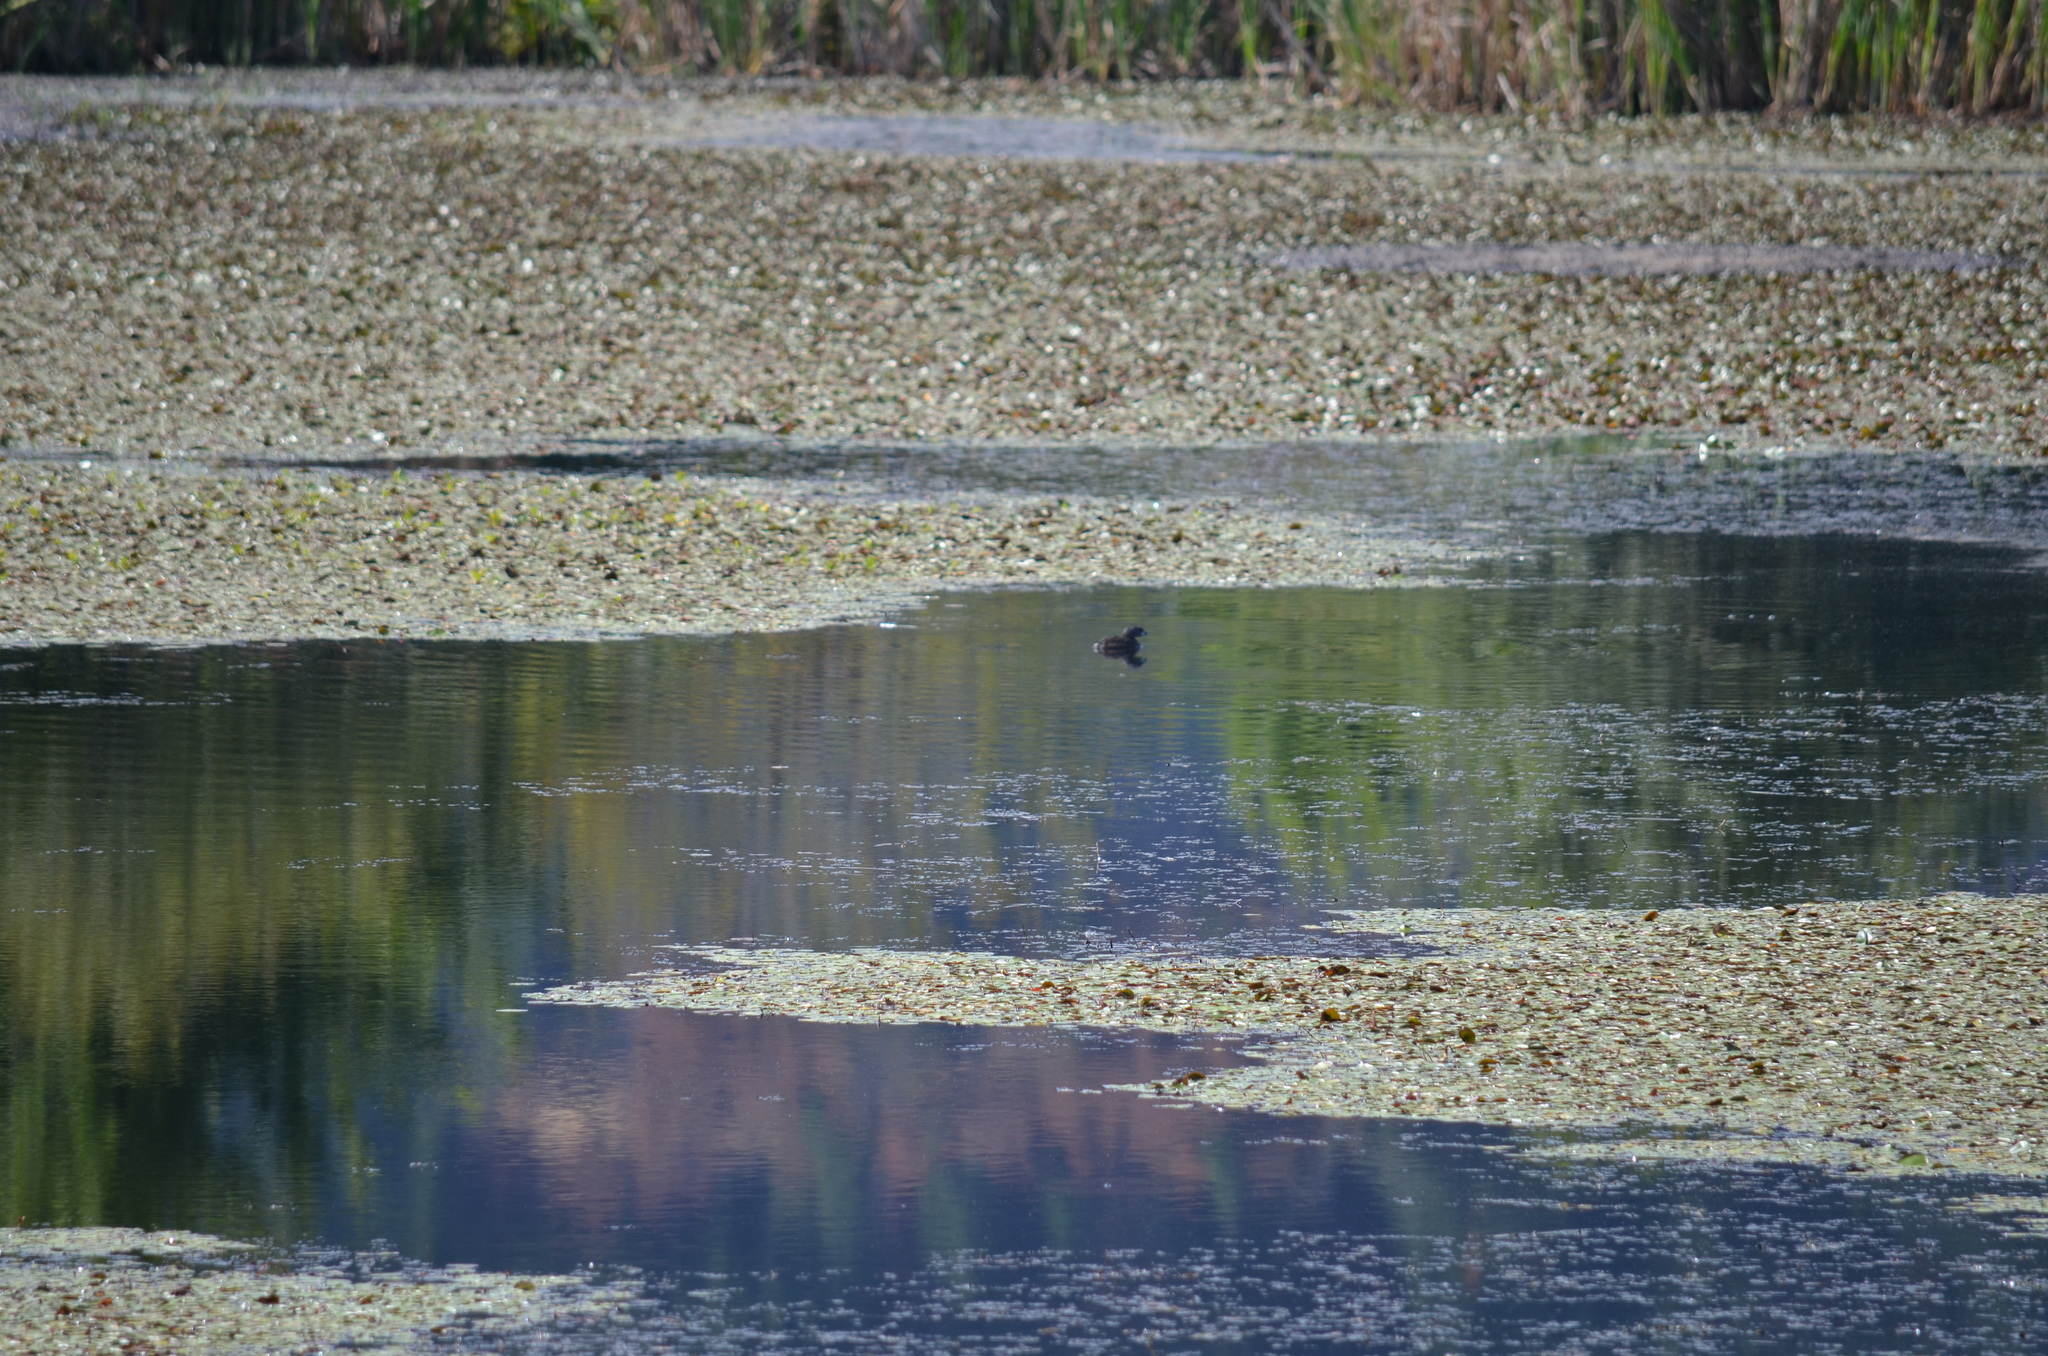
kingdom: Animalia
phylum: Chordata
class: Aves
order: Podicipediformes
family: Podicipedidae
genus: Podilymbus
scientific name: Podilymbus podiceps
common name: Pied-billed grebe
